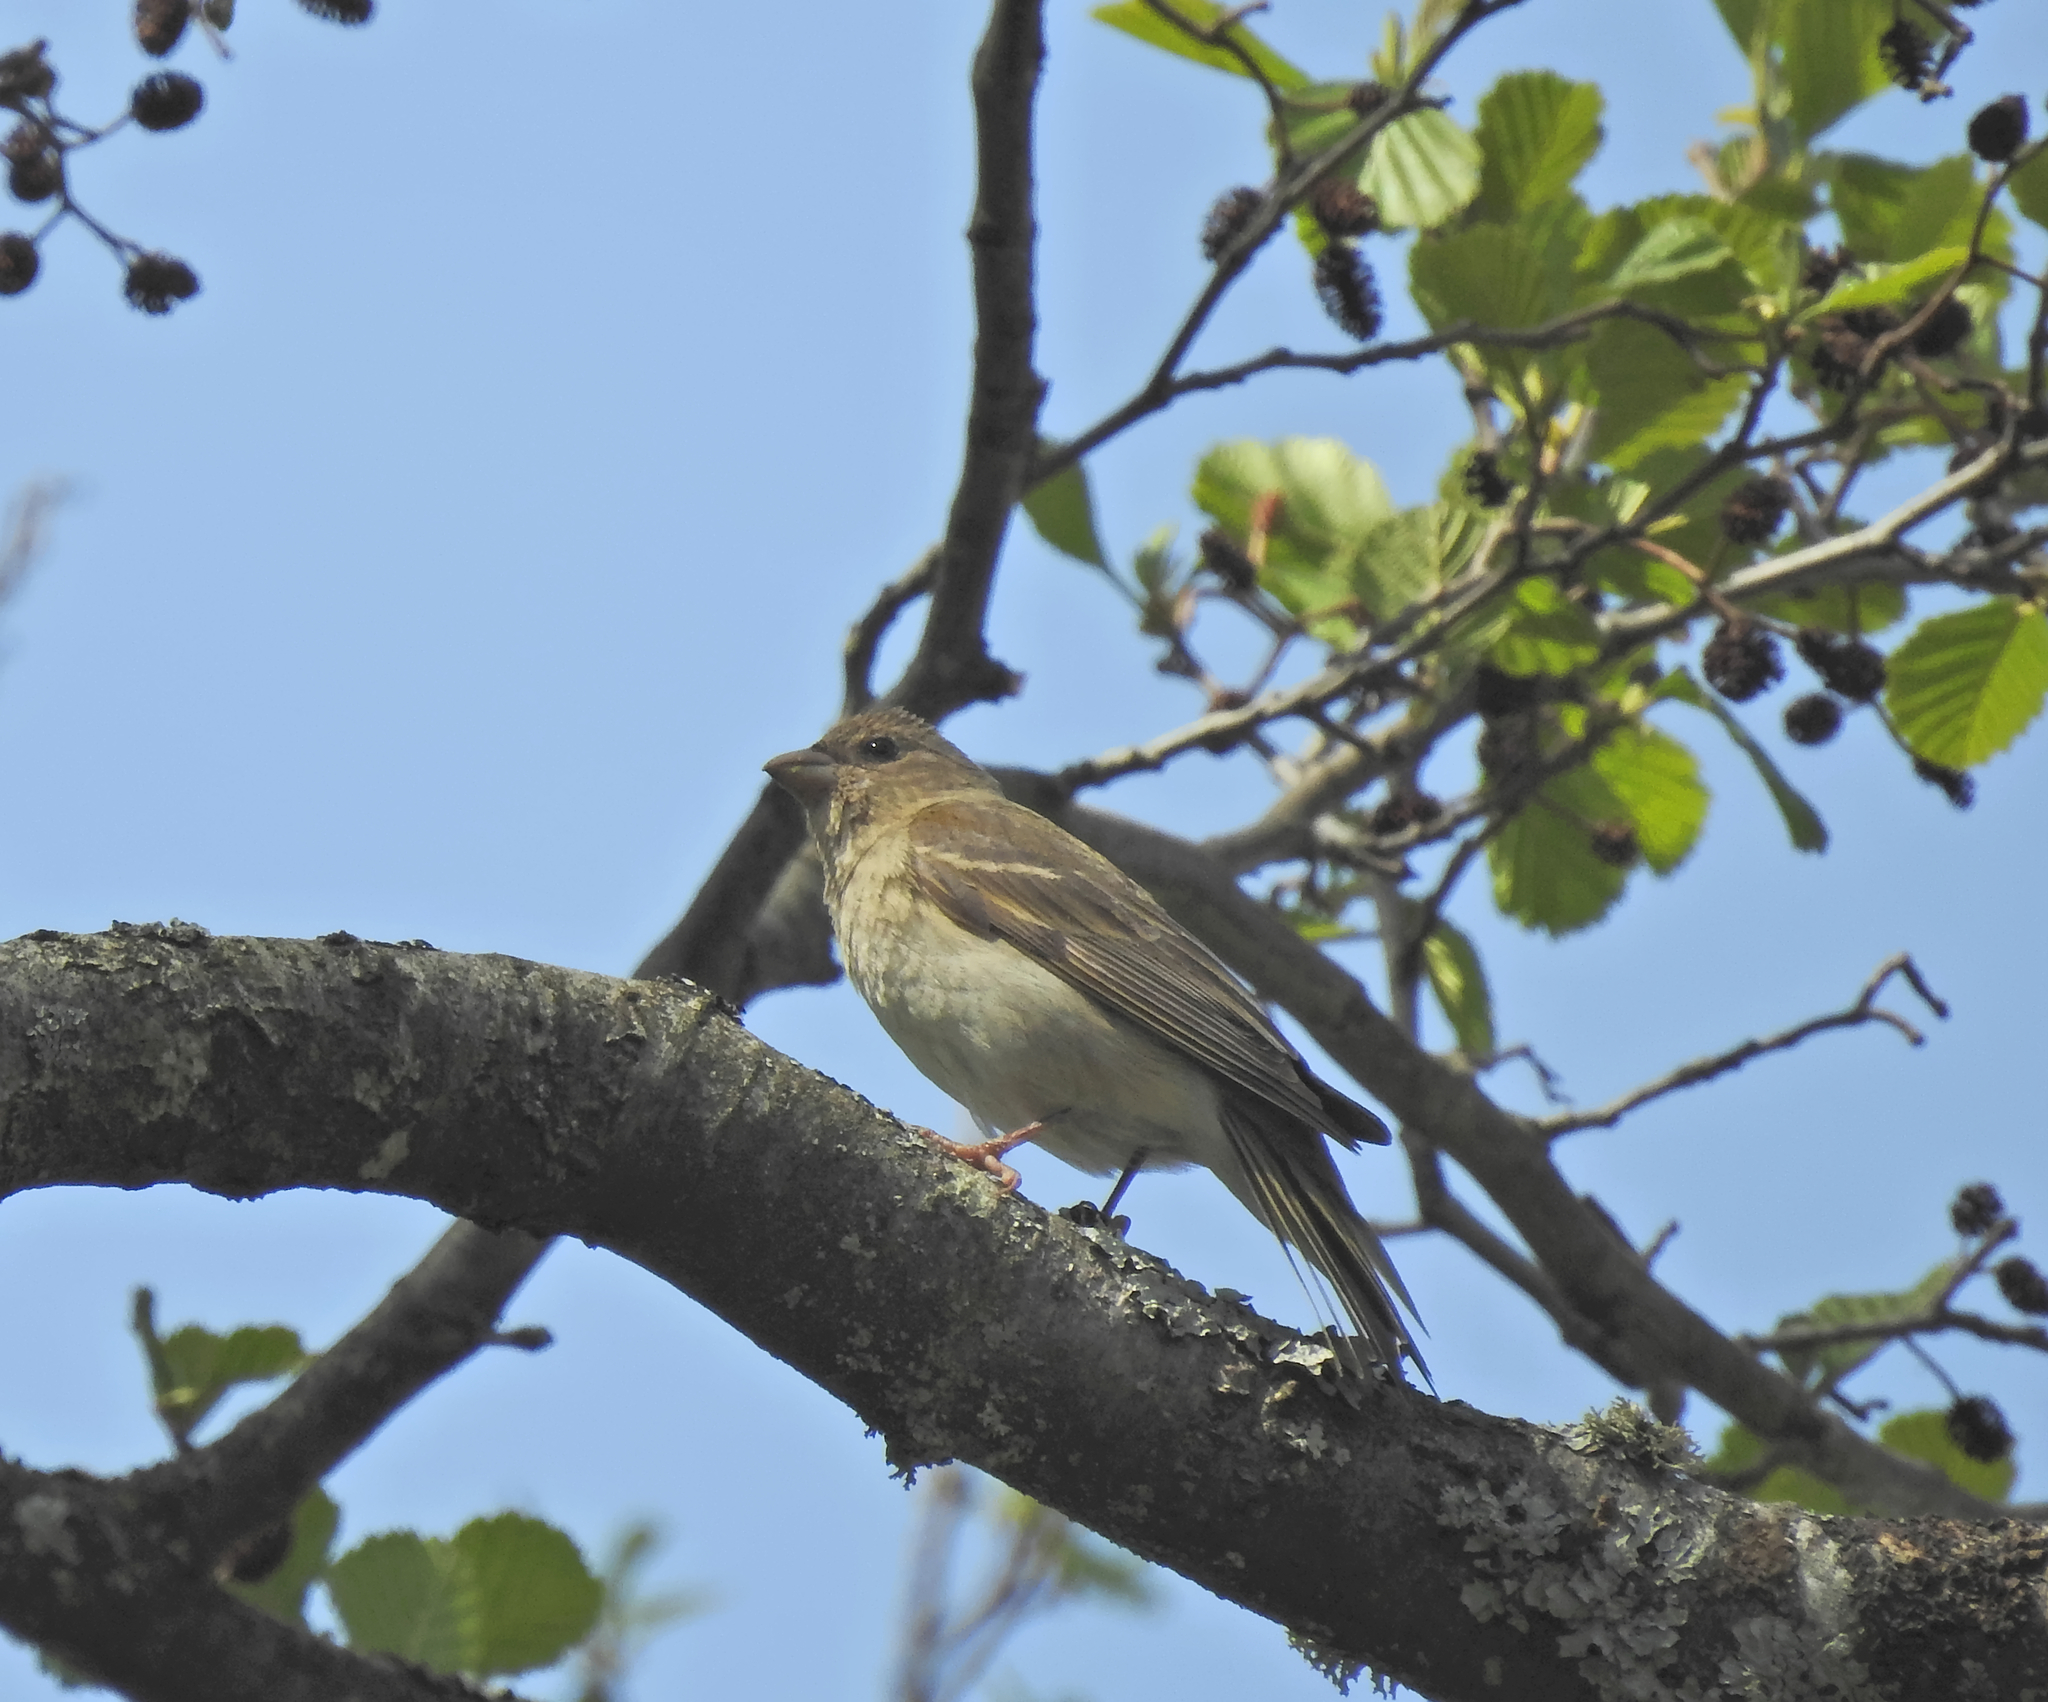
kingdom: Animalia
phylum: Chordata
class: Aves
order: Passeriformes
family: Fringillidae
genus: Carpodacus
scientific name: Carpodacus erythrinus
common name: Common rosefinch
